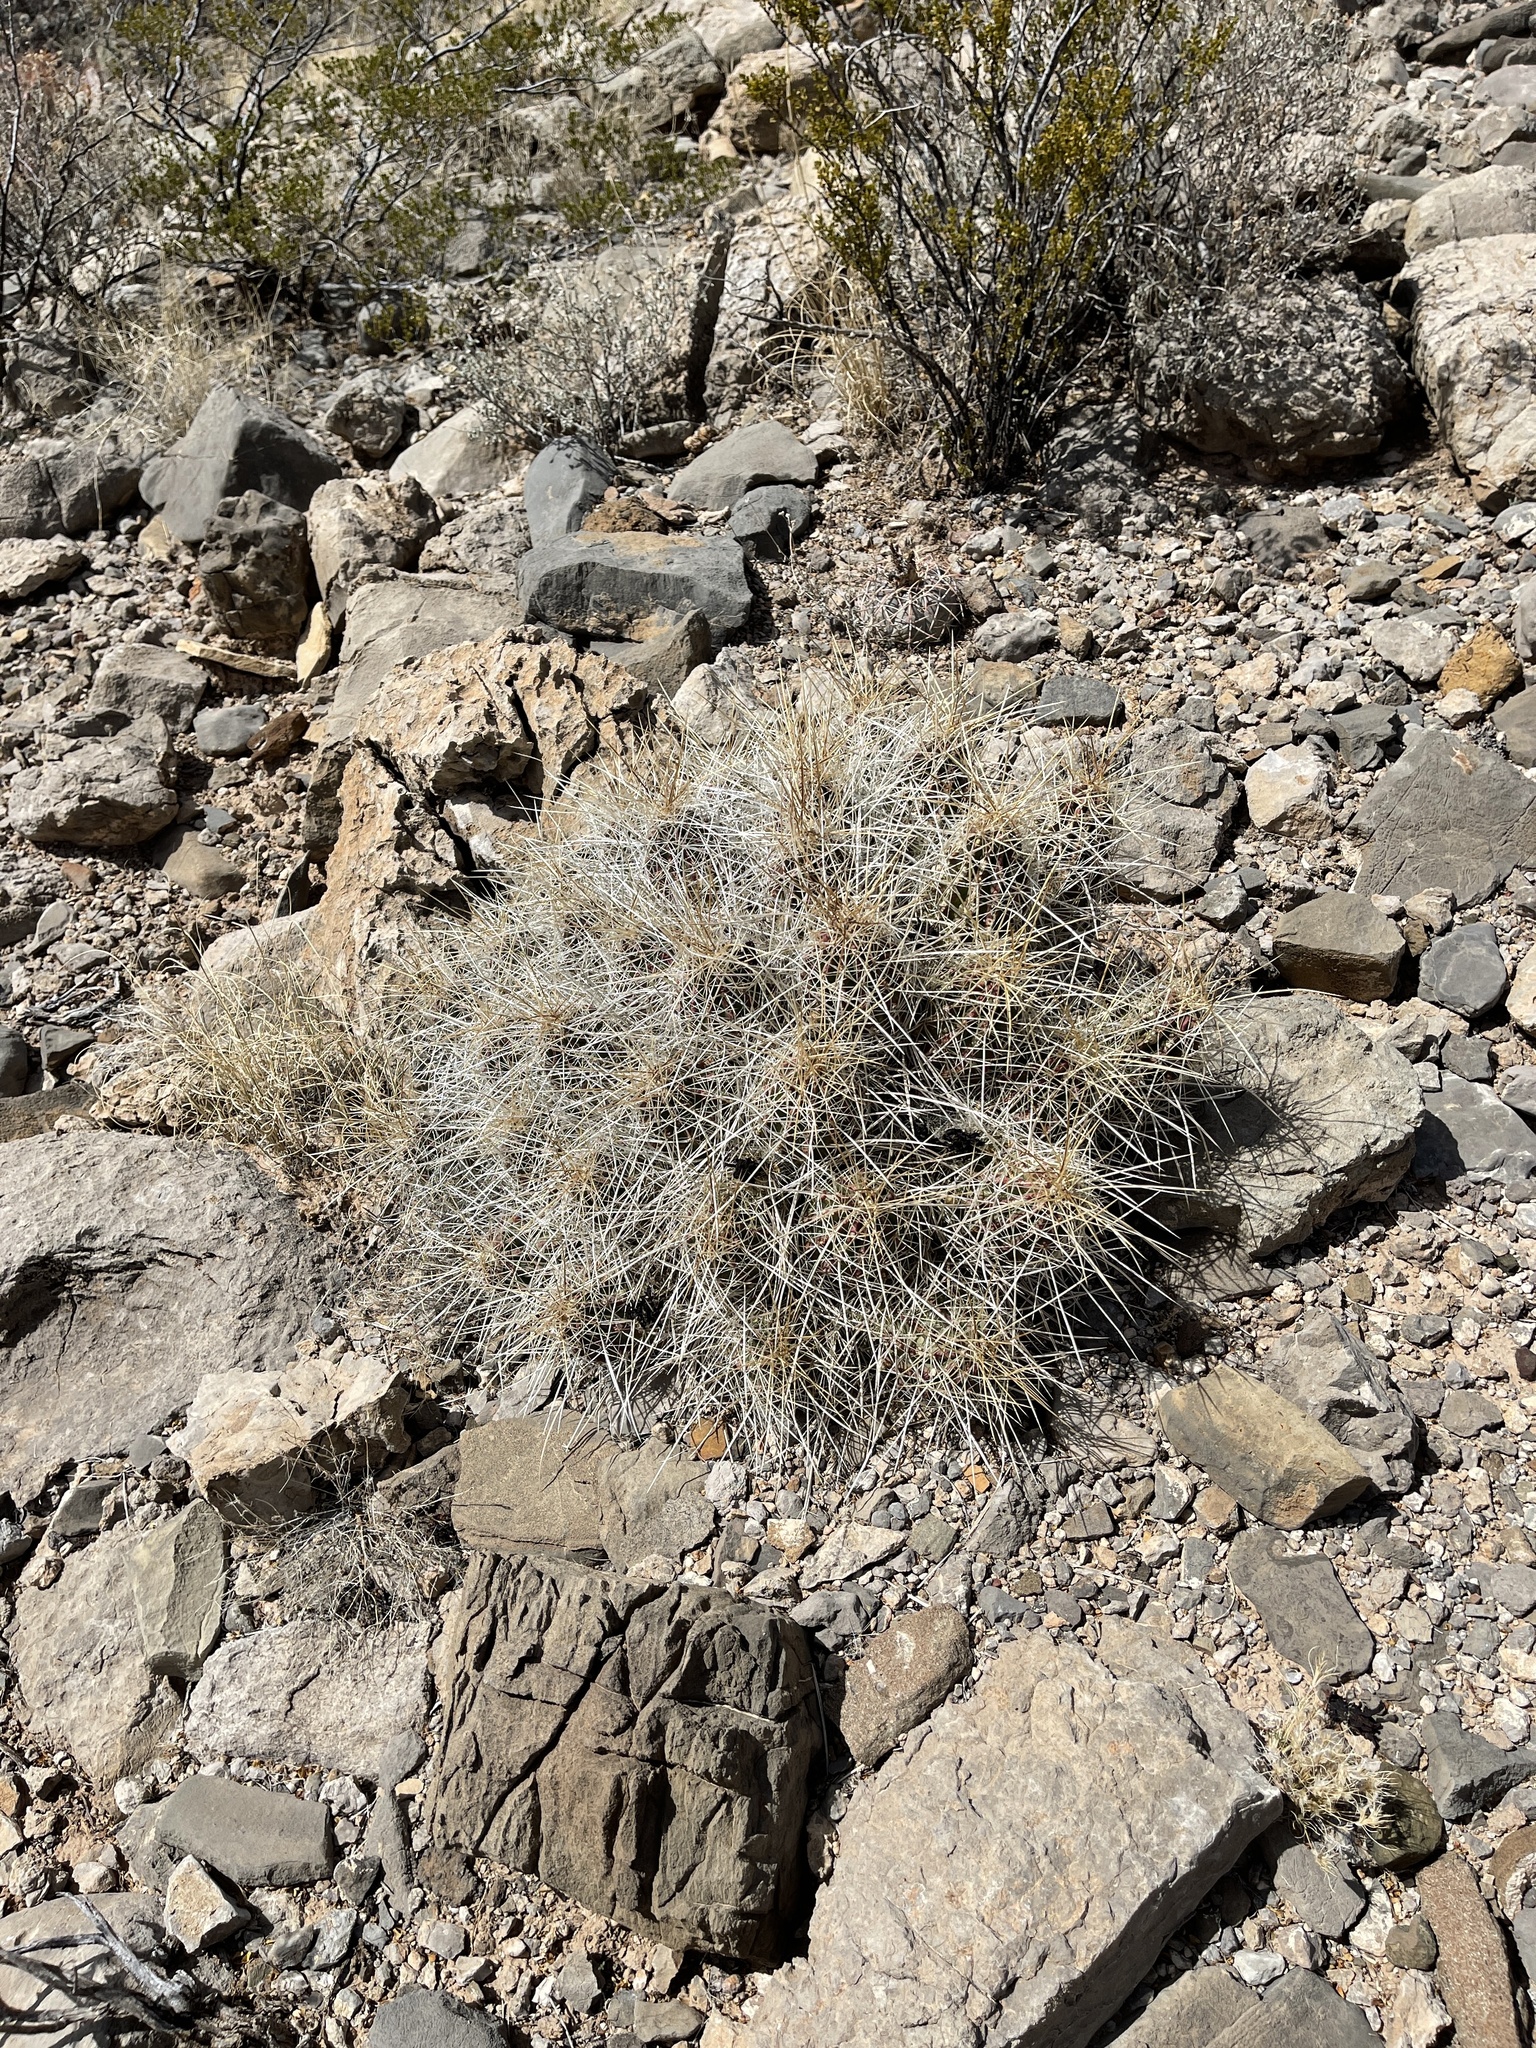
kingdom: Plantae
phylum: Tracheophyta
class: Magnoliopsida
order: Caryophyllales
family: Cactaceae
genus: Echinocereus
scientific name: Echinocereus stramineus
